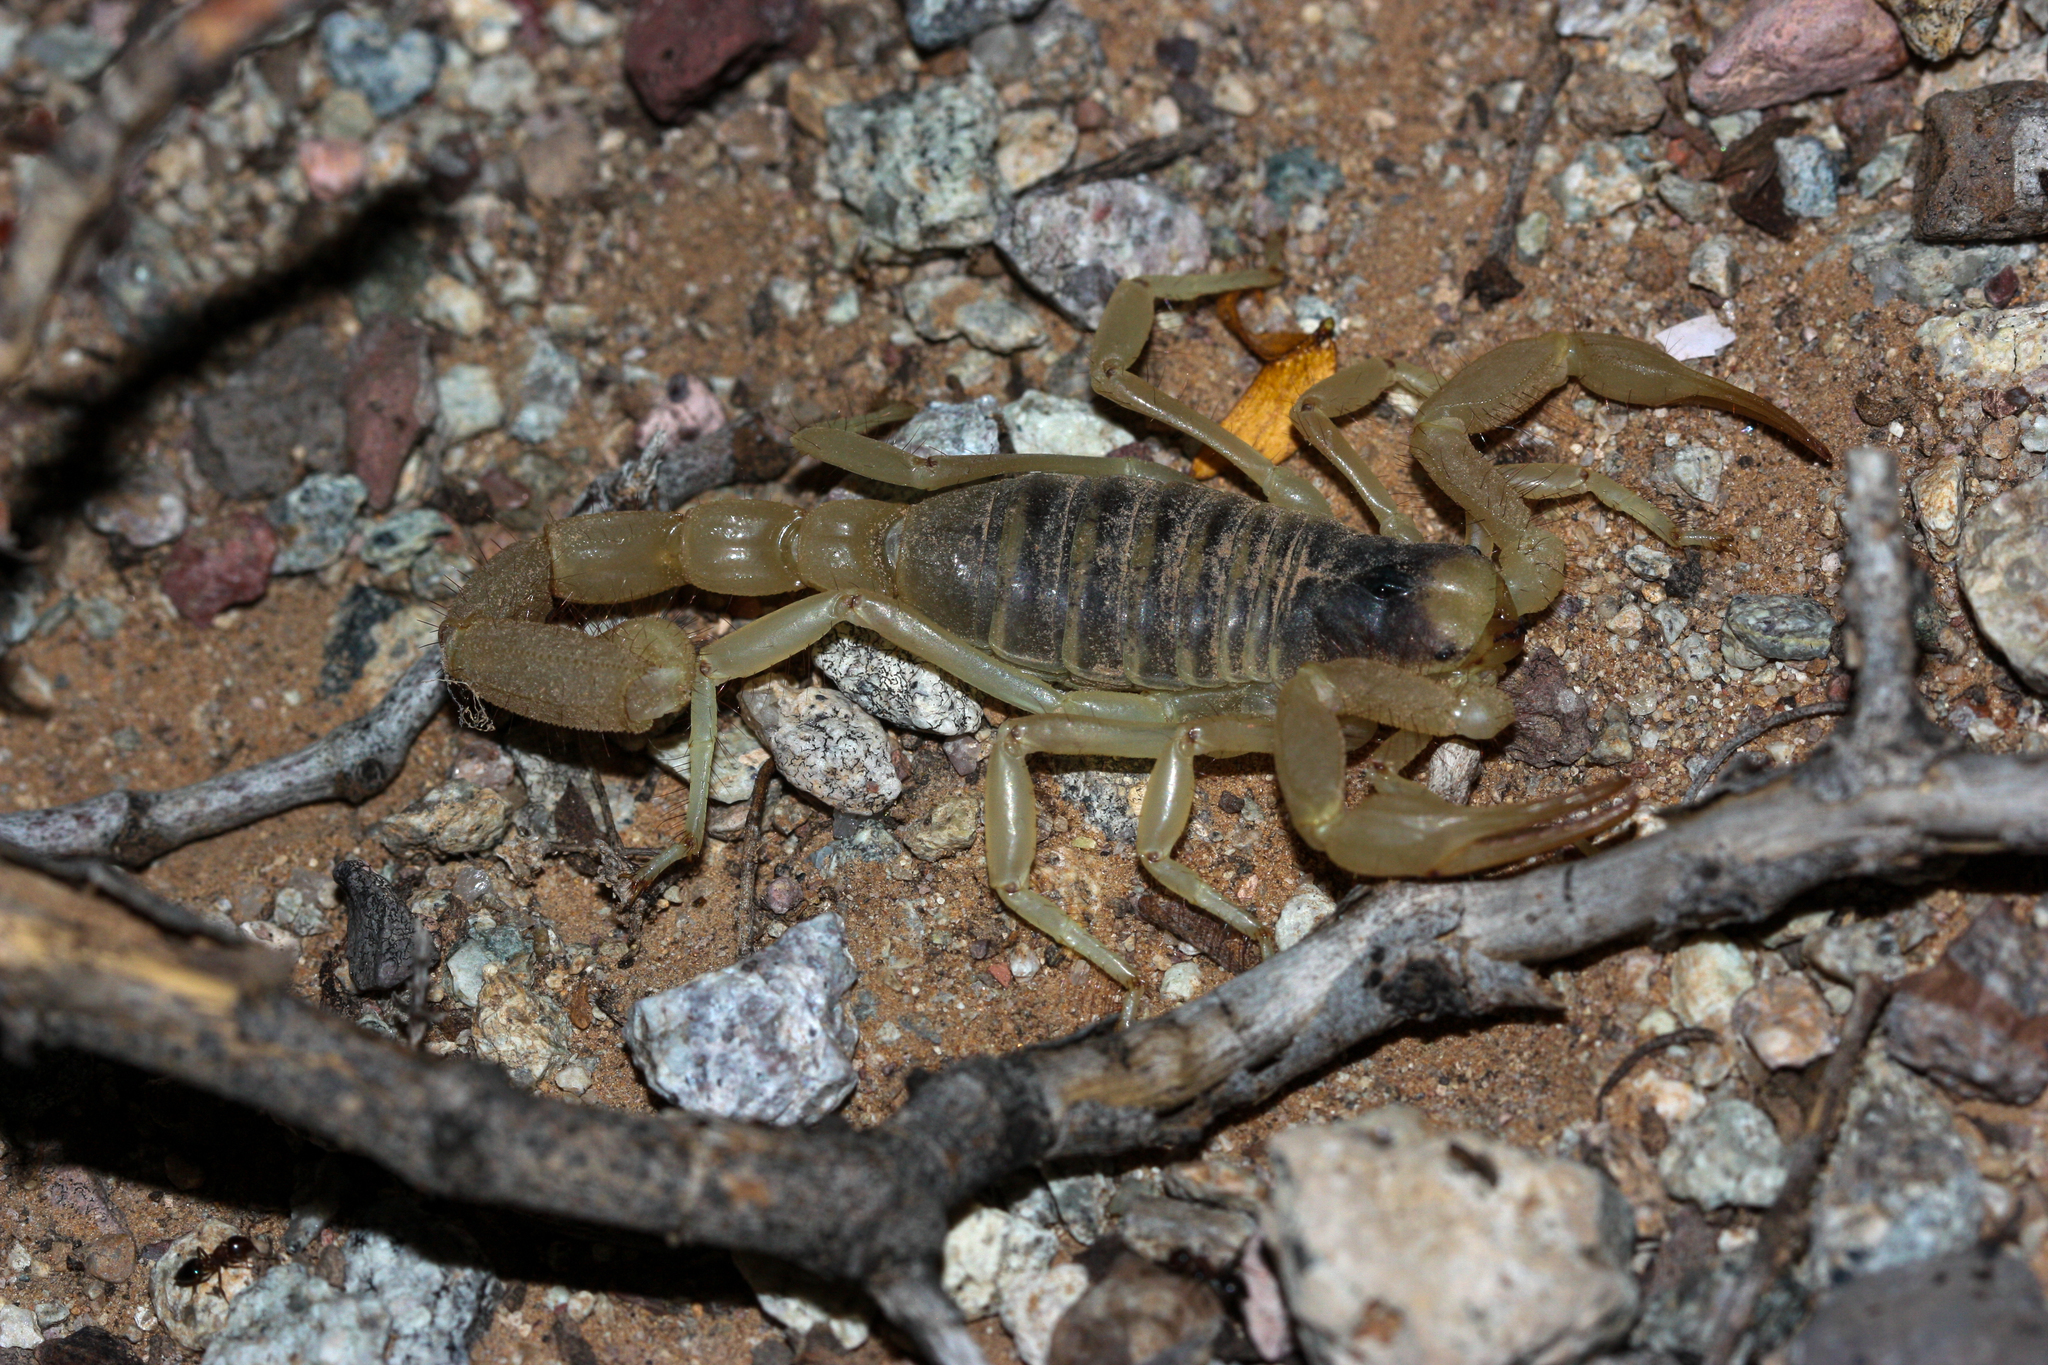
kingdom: Animalia
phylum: Arthropoda
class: Arachnida
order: Scorpiones
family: Hadruridae
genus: Hadrurus
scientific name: Hadrurus arizonensis
